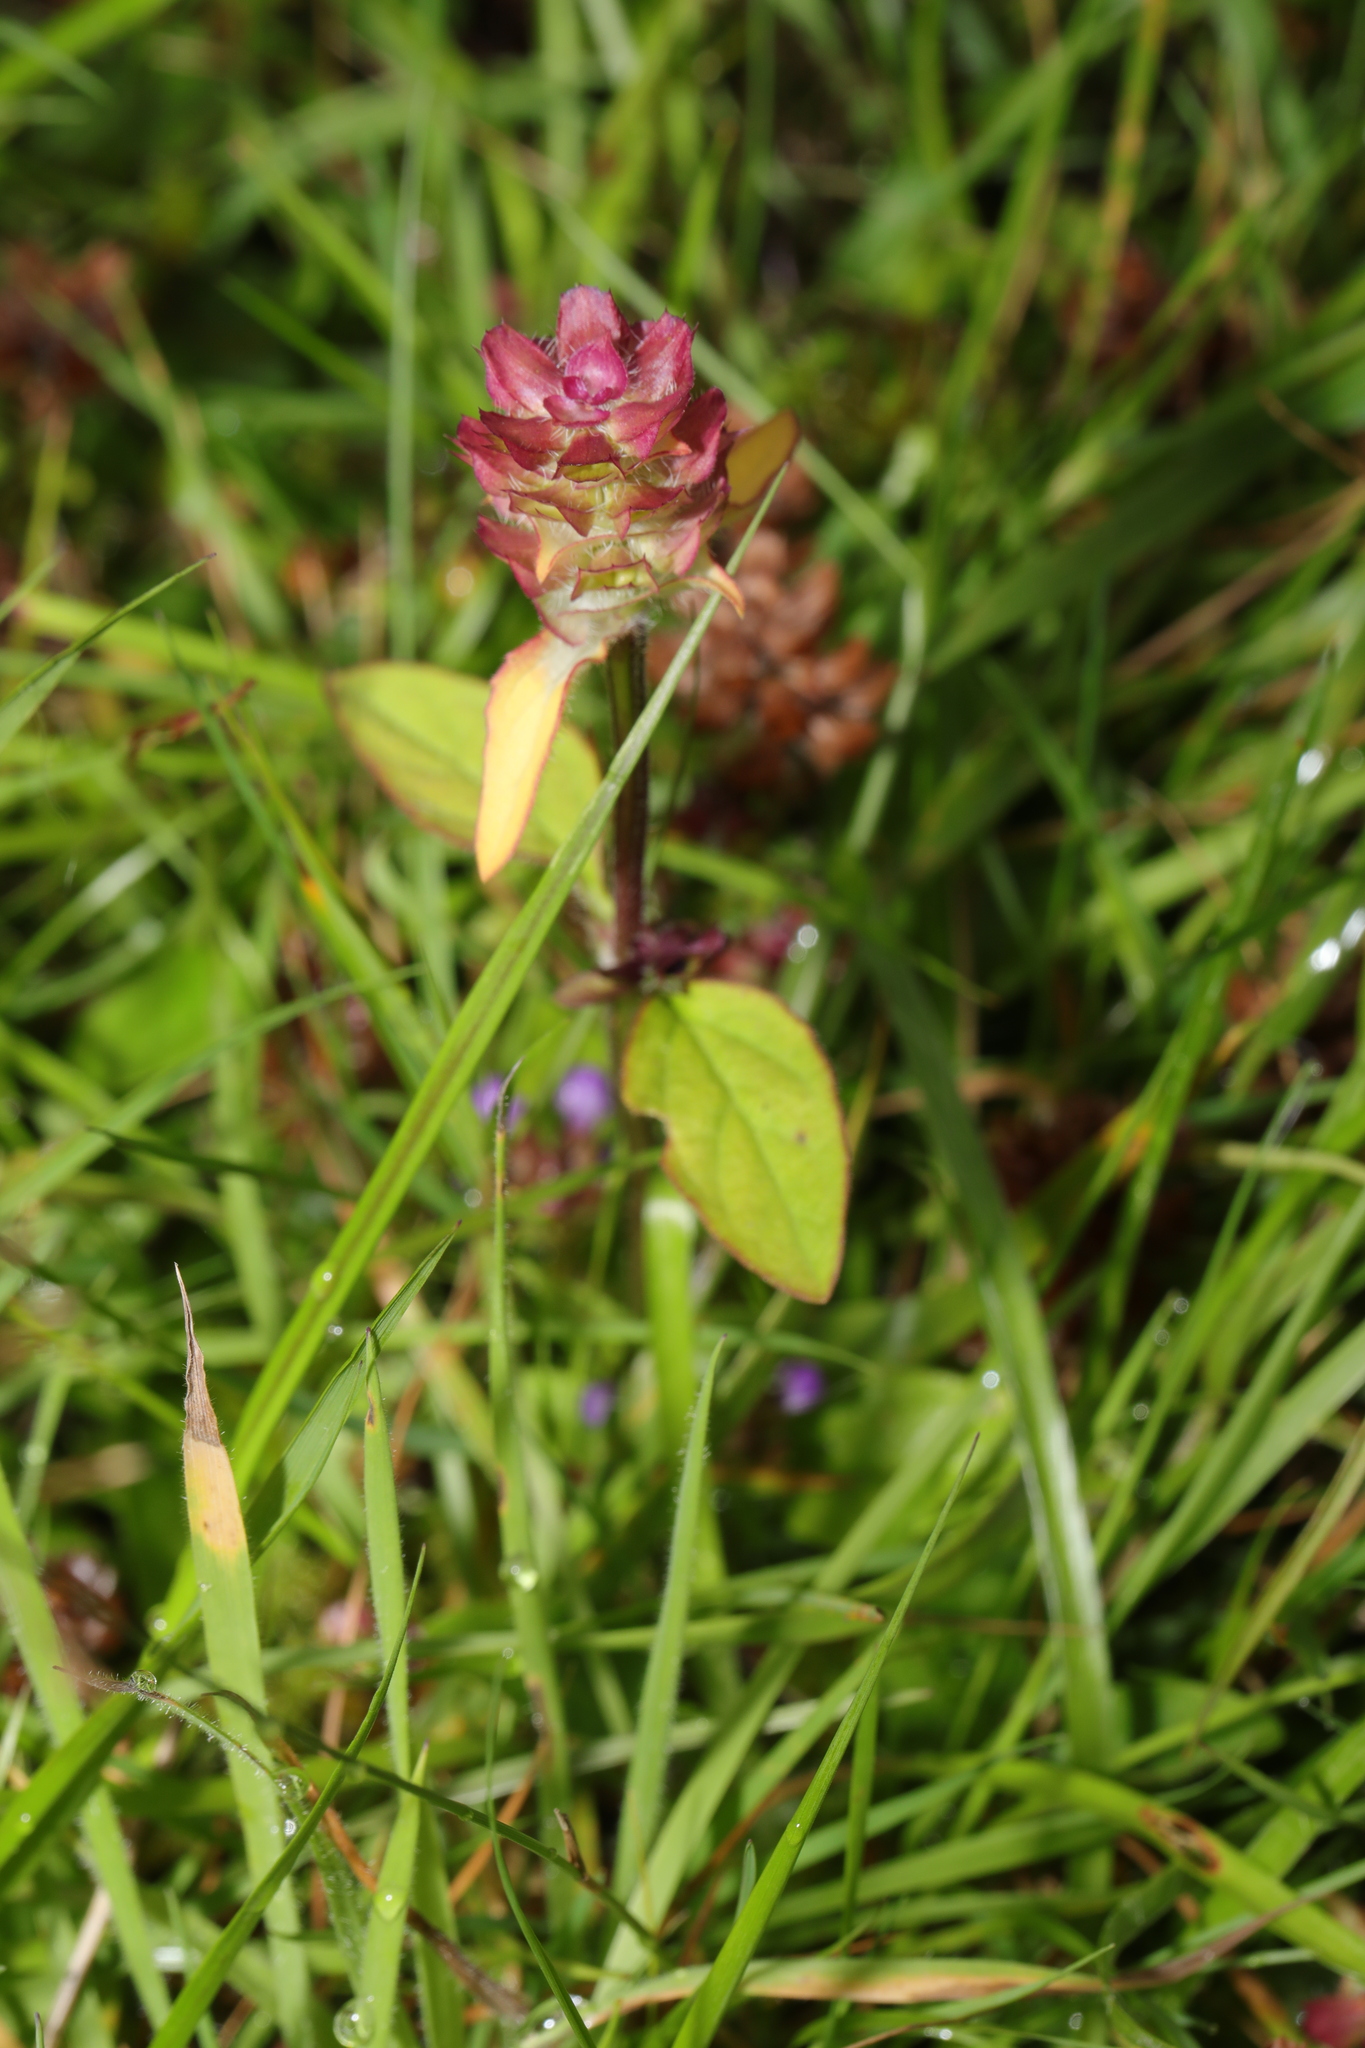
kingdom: Plantae
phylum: Tracheophyta
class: Magnoliopsida
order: Lamiales
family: Lamiaceae
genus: Prunella
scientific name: Prunella vulgaris
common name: Heal-all
